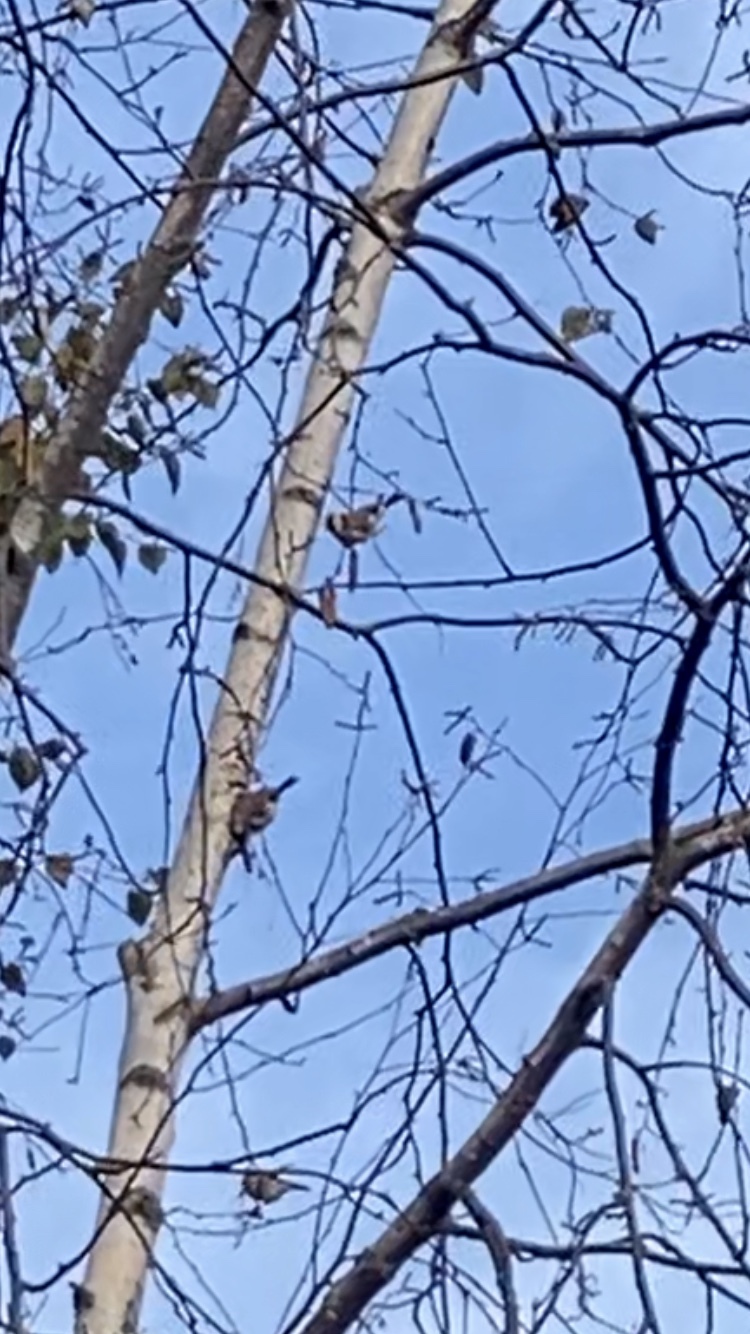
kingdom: Animalia
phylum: Chordata
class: Aves
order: Passeriformes
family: Fringillidae
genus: Carduelis
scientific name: Carduelis carduelis
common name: European goldfinch
